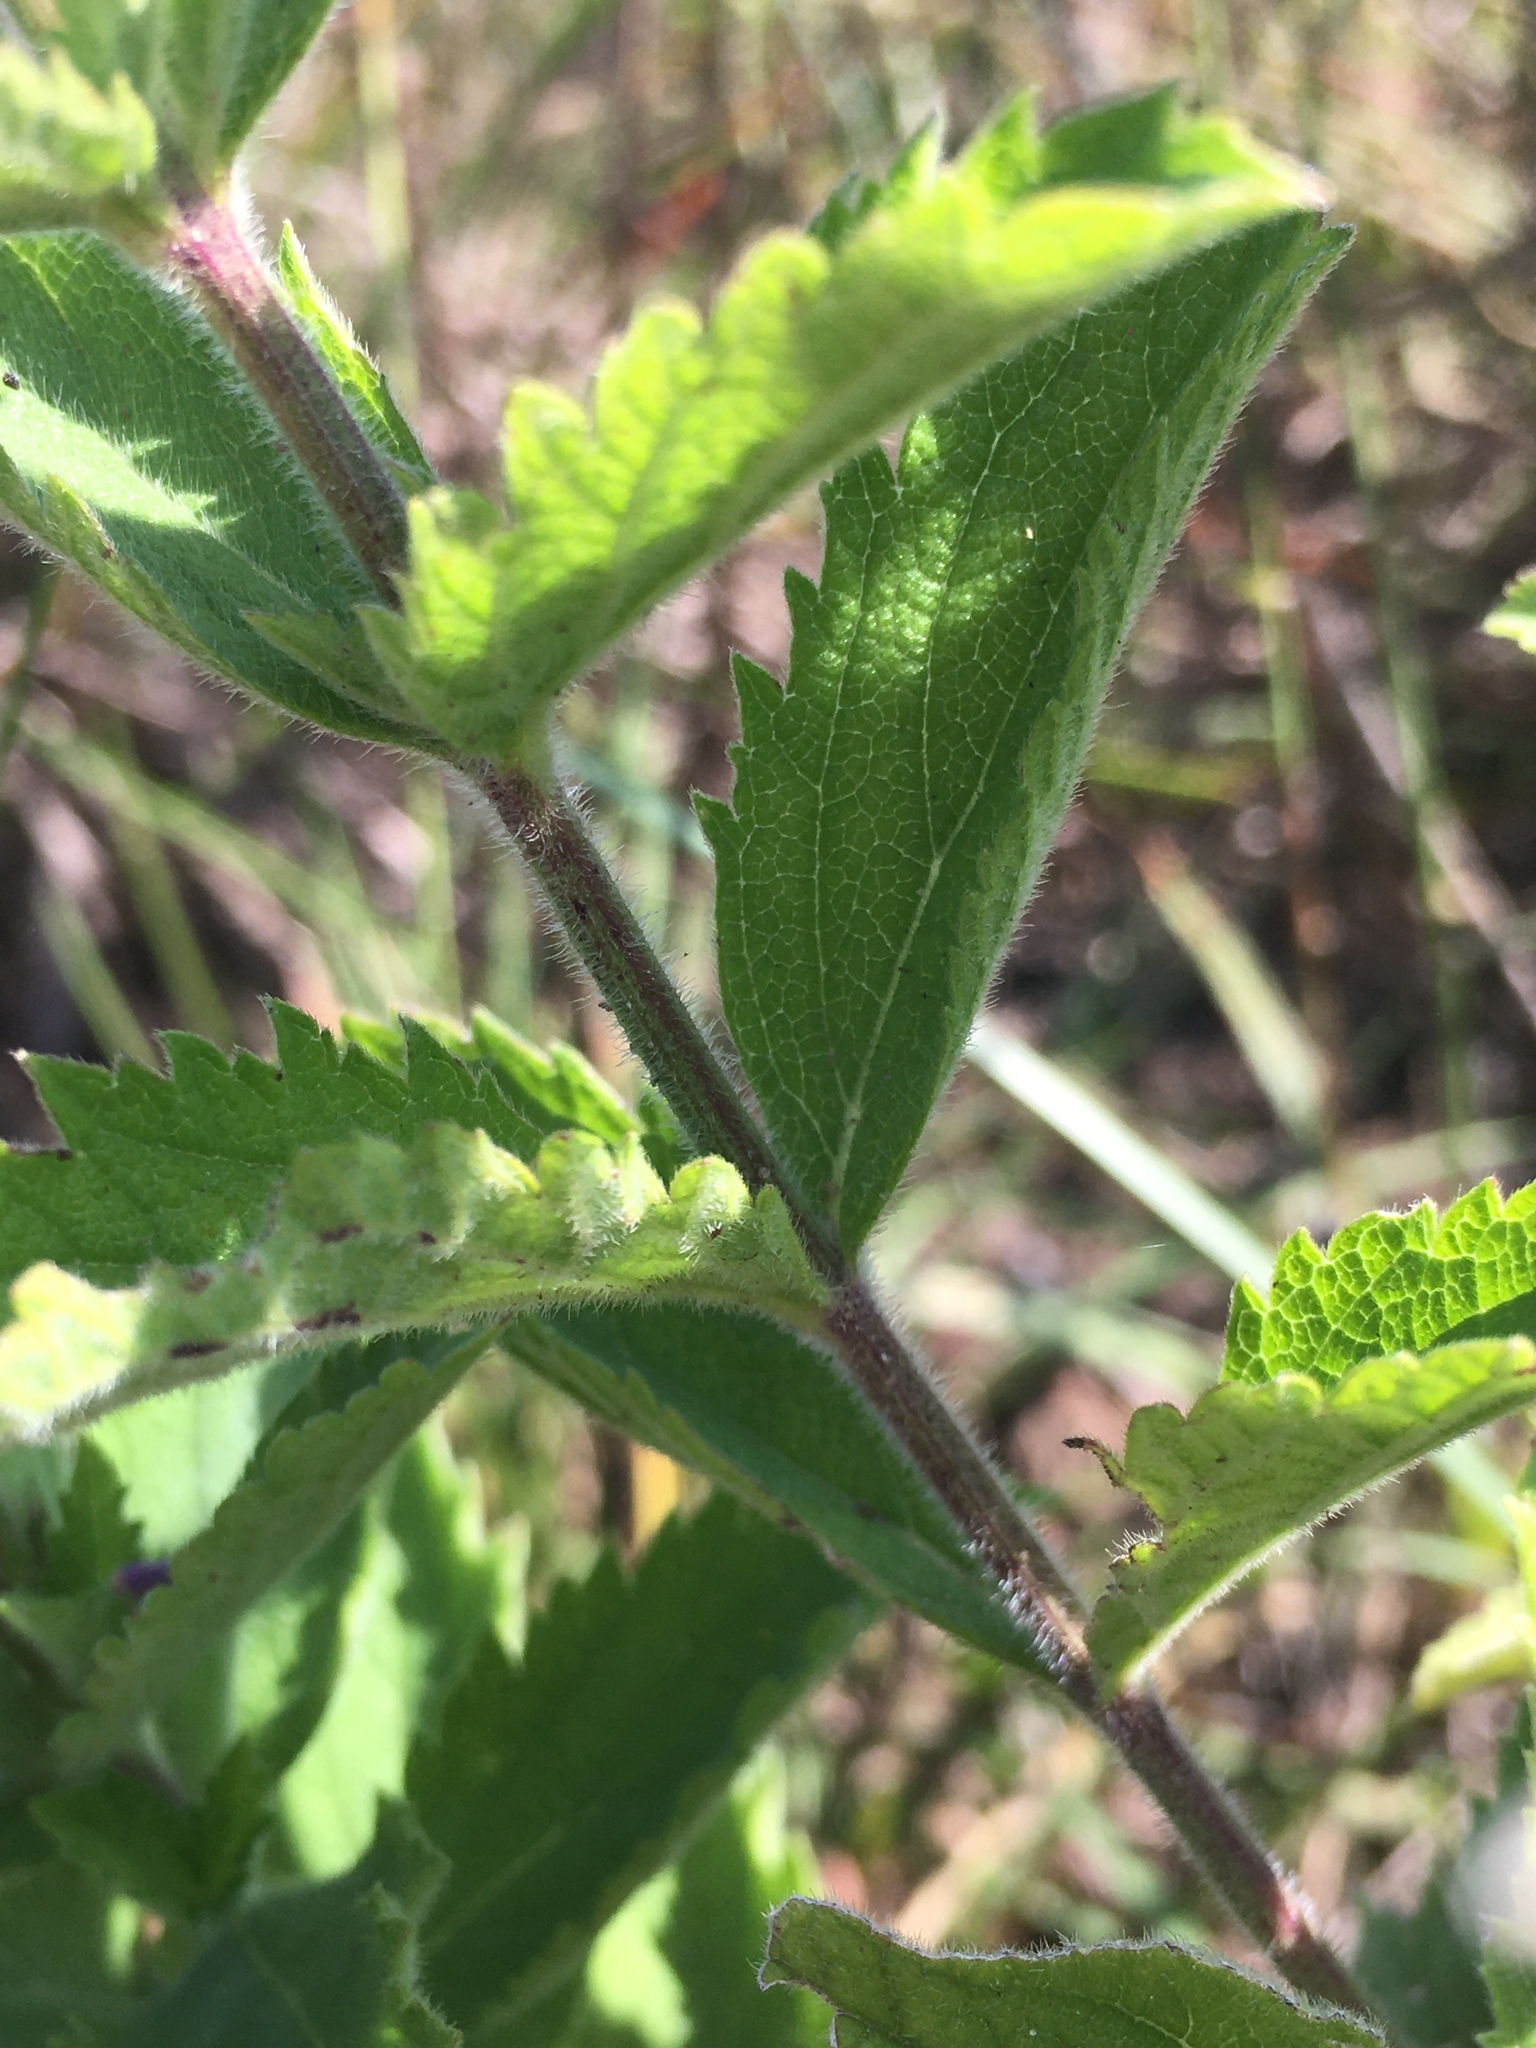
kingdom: Plantae
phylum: Tracheophyta
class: Magnoliopsida
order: Lamiales
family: Verbenaceae
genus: Verbena
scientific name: Verbena stricta
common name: Hoary vervain
